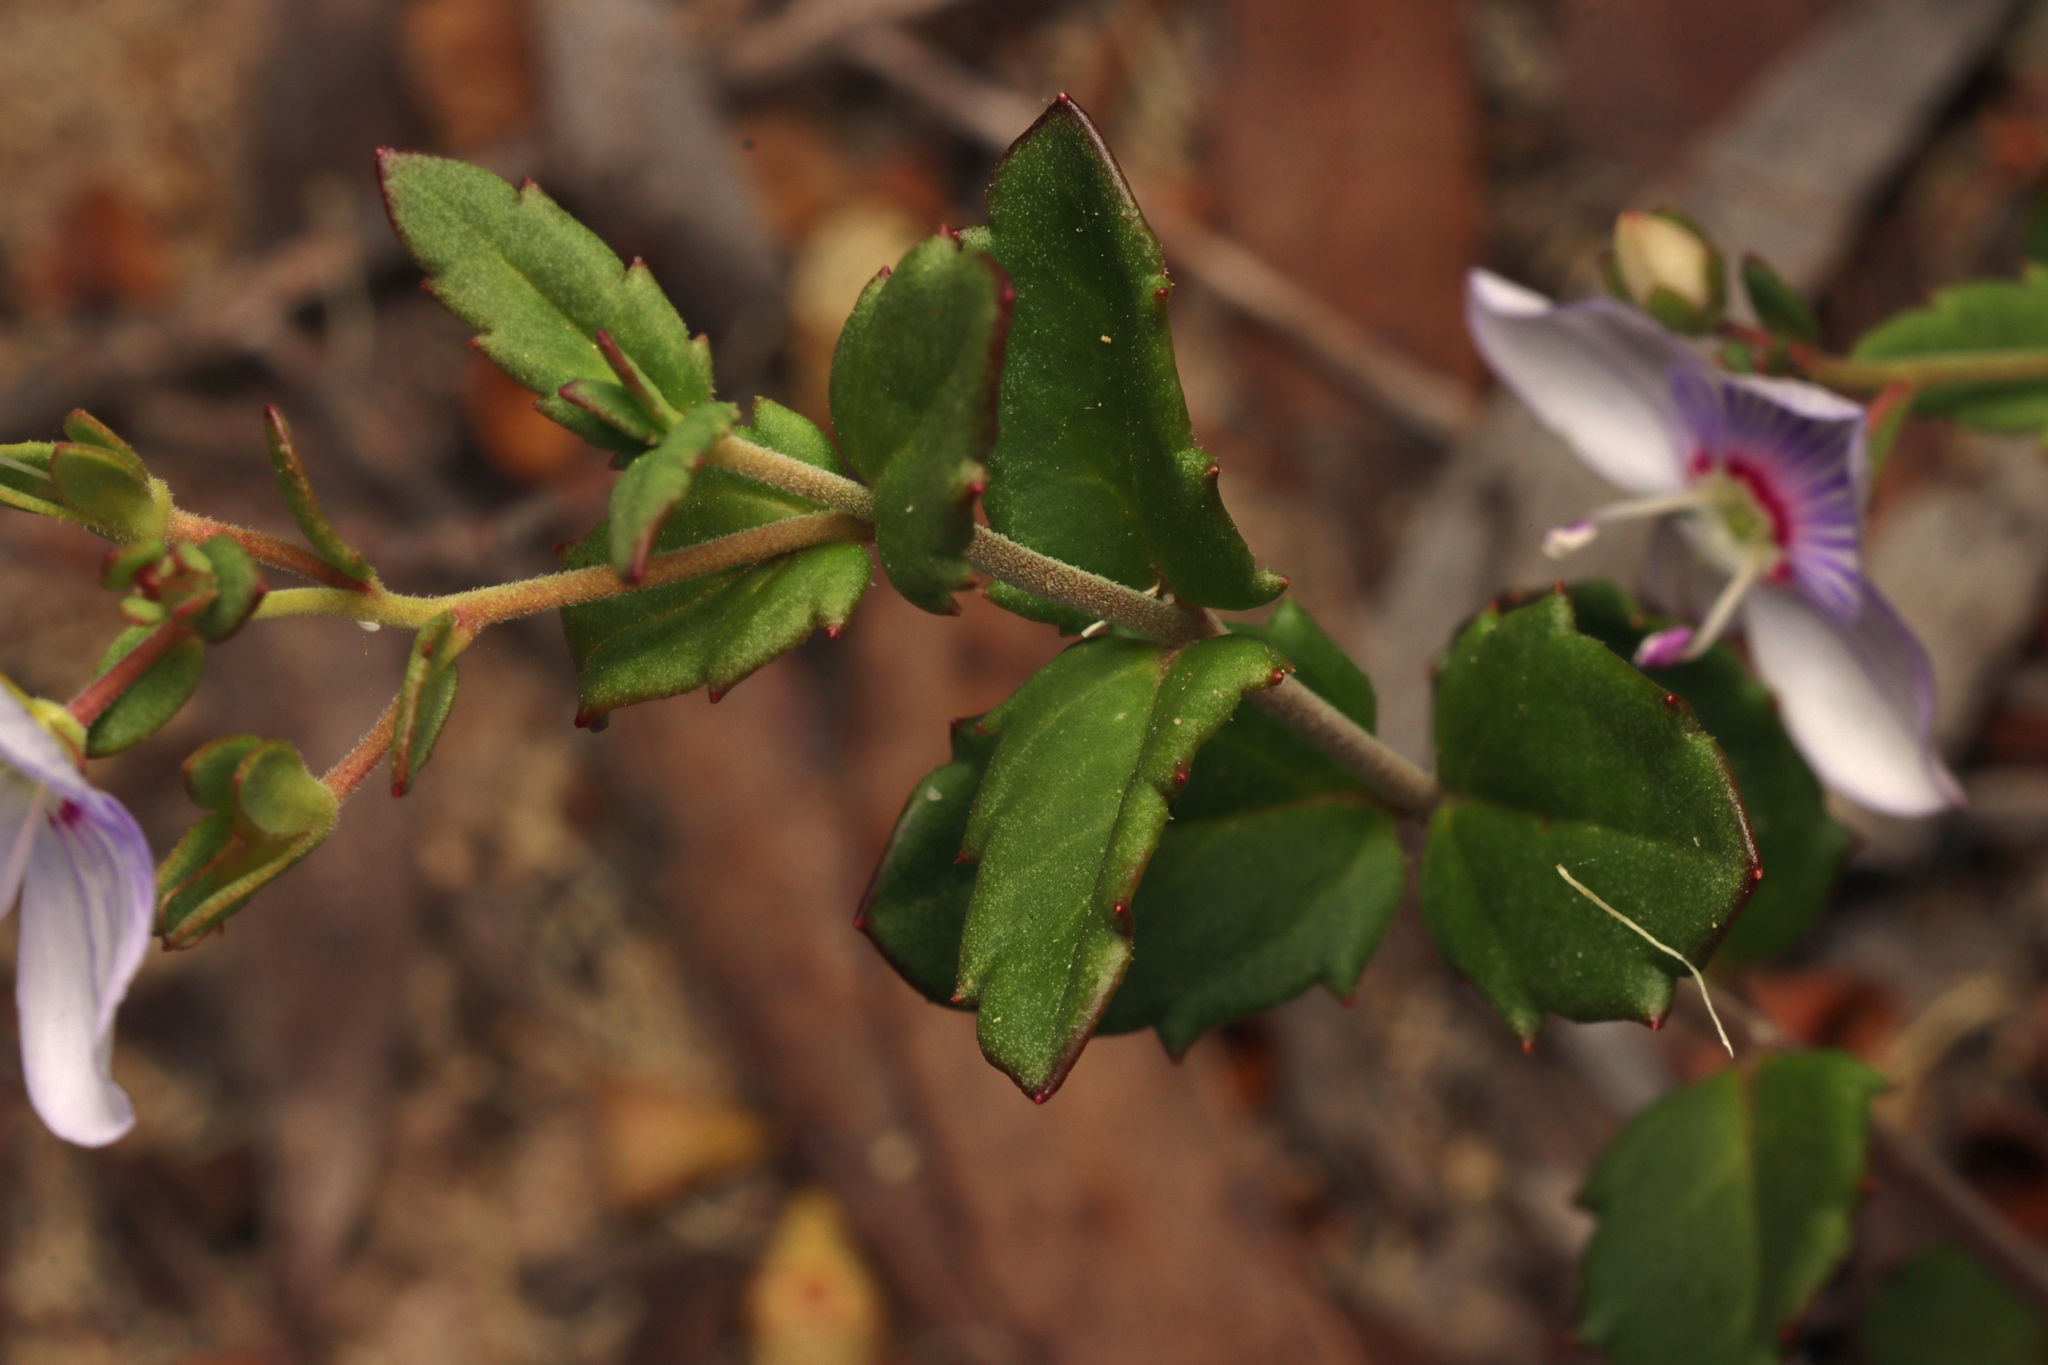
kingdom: Plantae
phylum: Tracheophyta
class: Magnoliopsida
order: Lamiales
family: Plantaginaceae
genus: Veronica
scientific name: Veronica hillebrandii
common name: Coast speedwell
